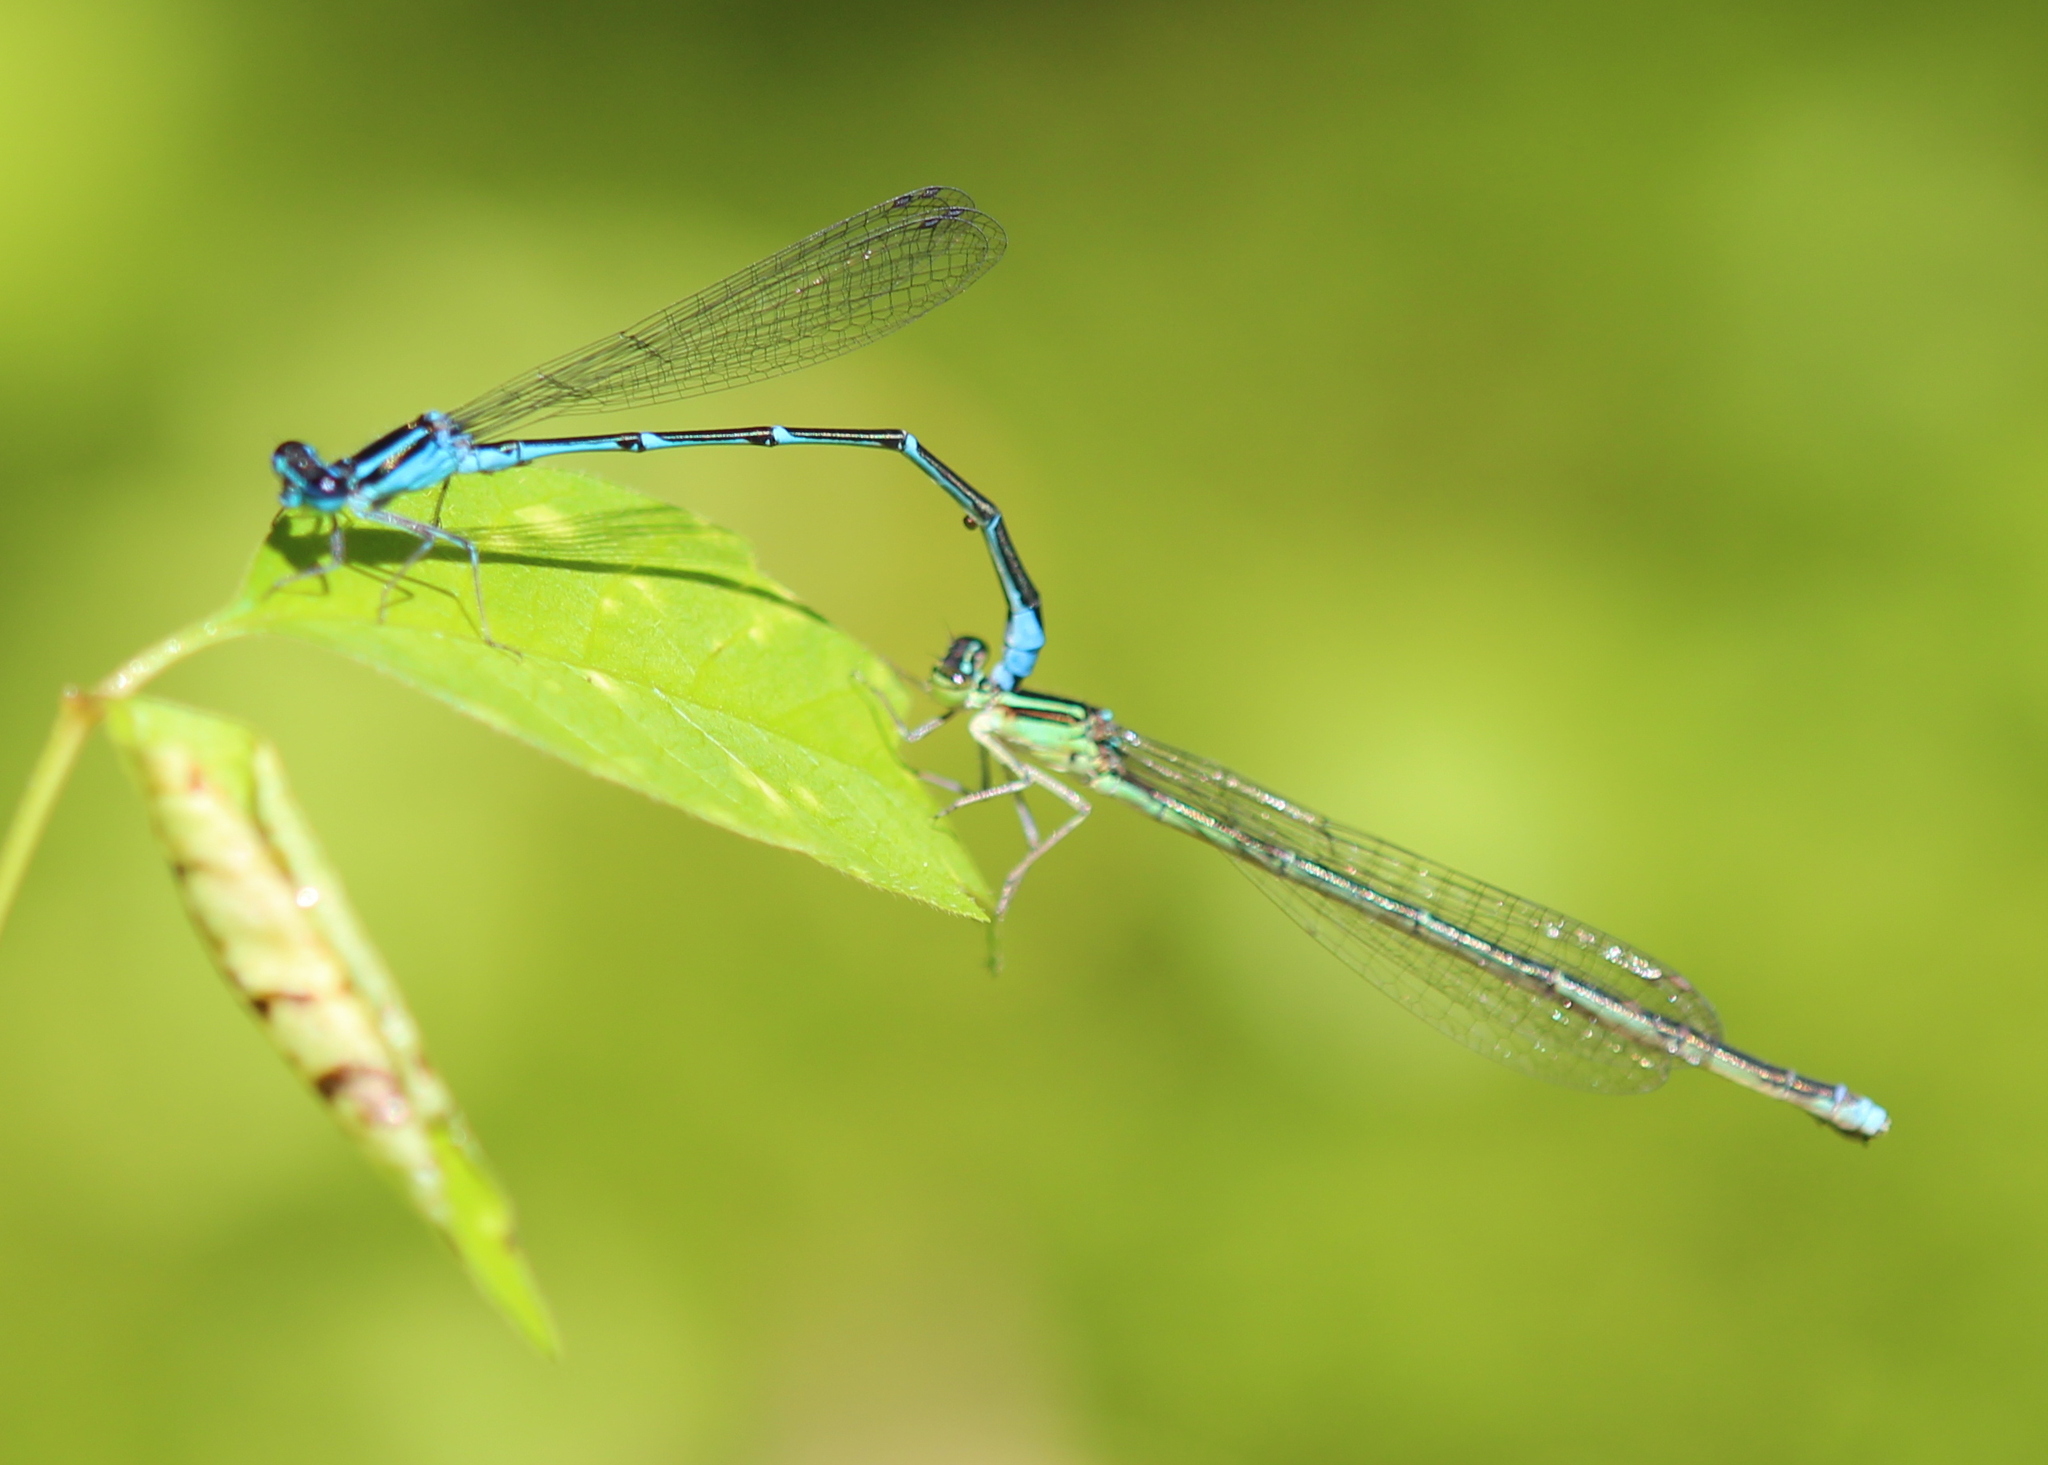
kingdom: Animalia
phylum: Arthropoda
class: Insecta
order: Odonata
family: Coenagrionidae
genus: Enallagma
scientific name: Enallagma exsulans
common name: Stream bluet
